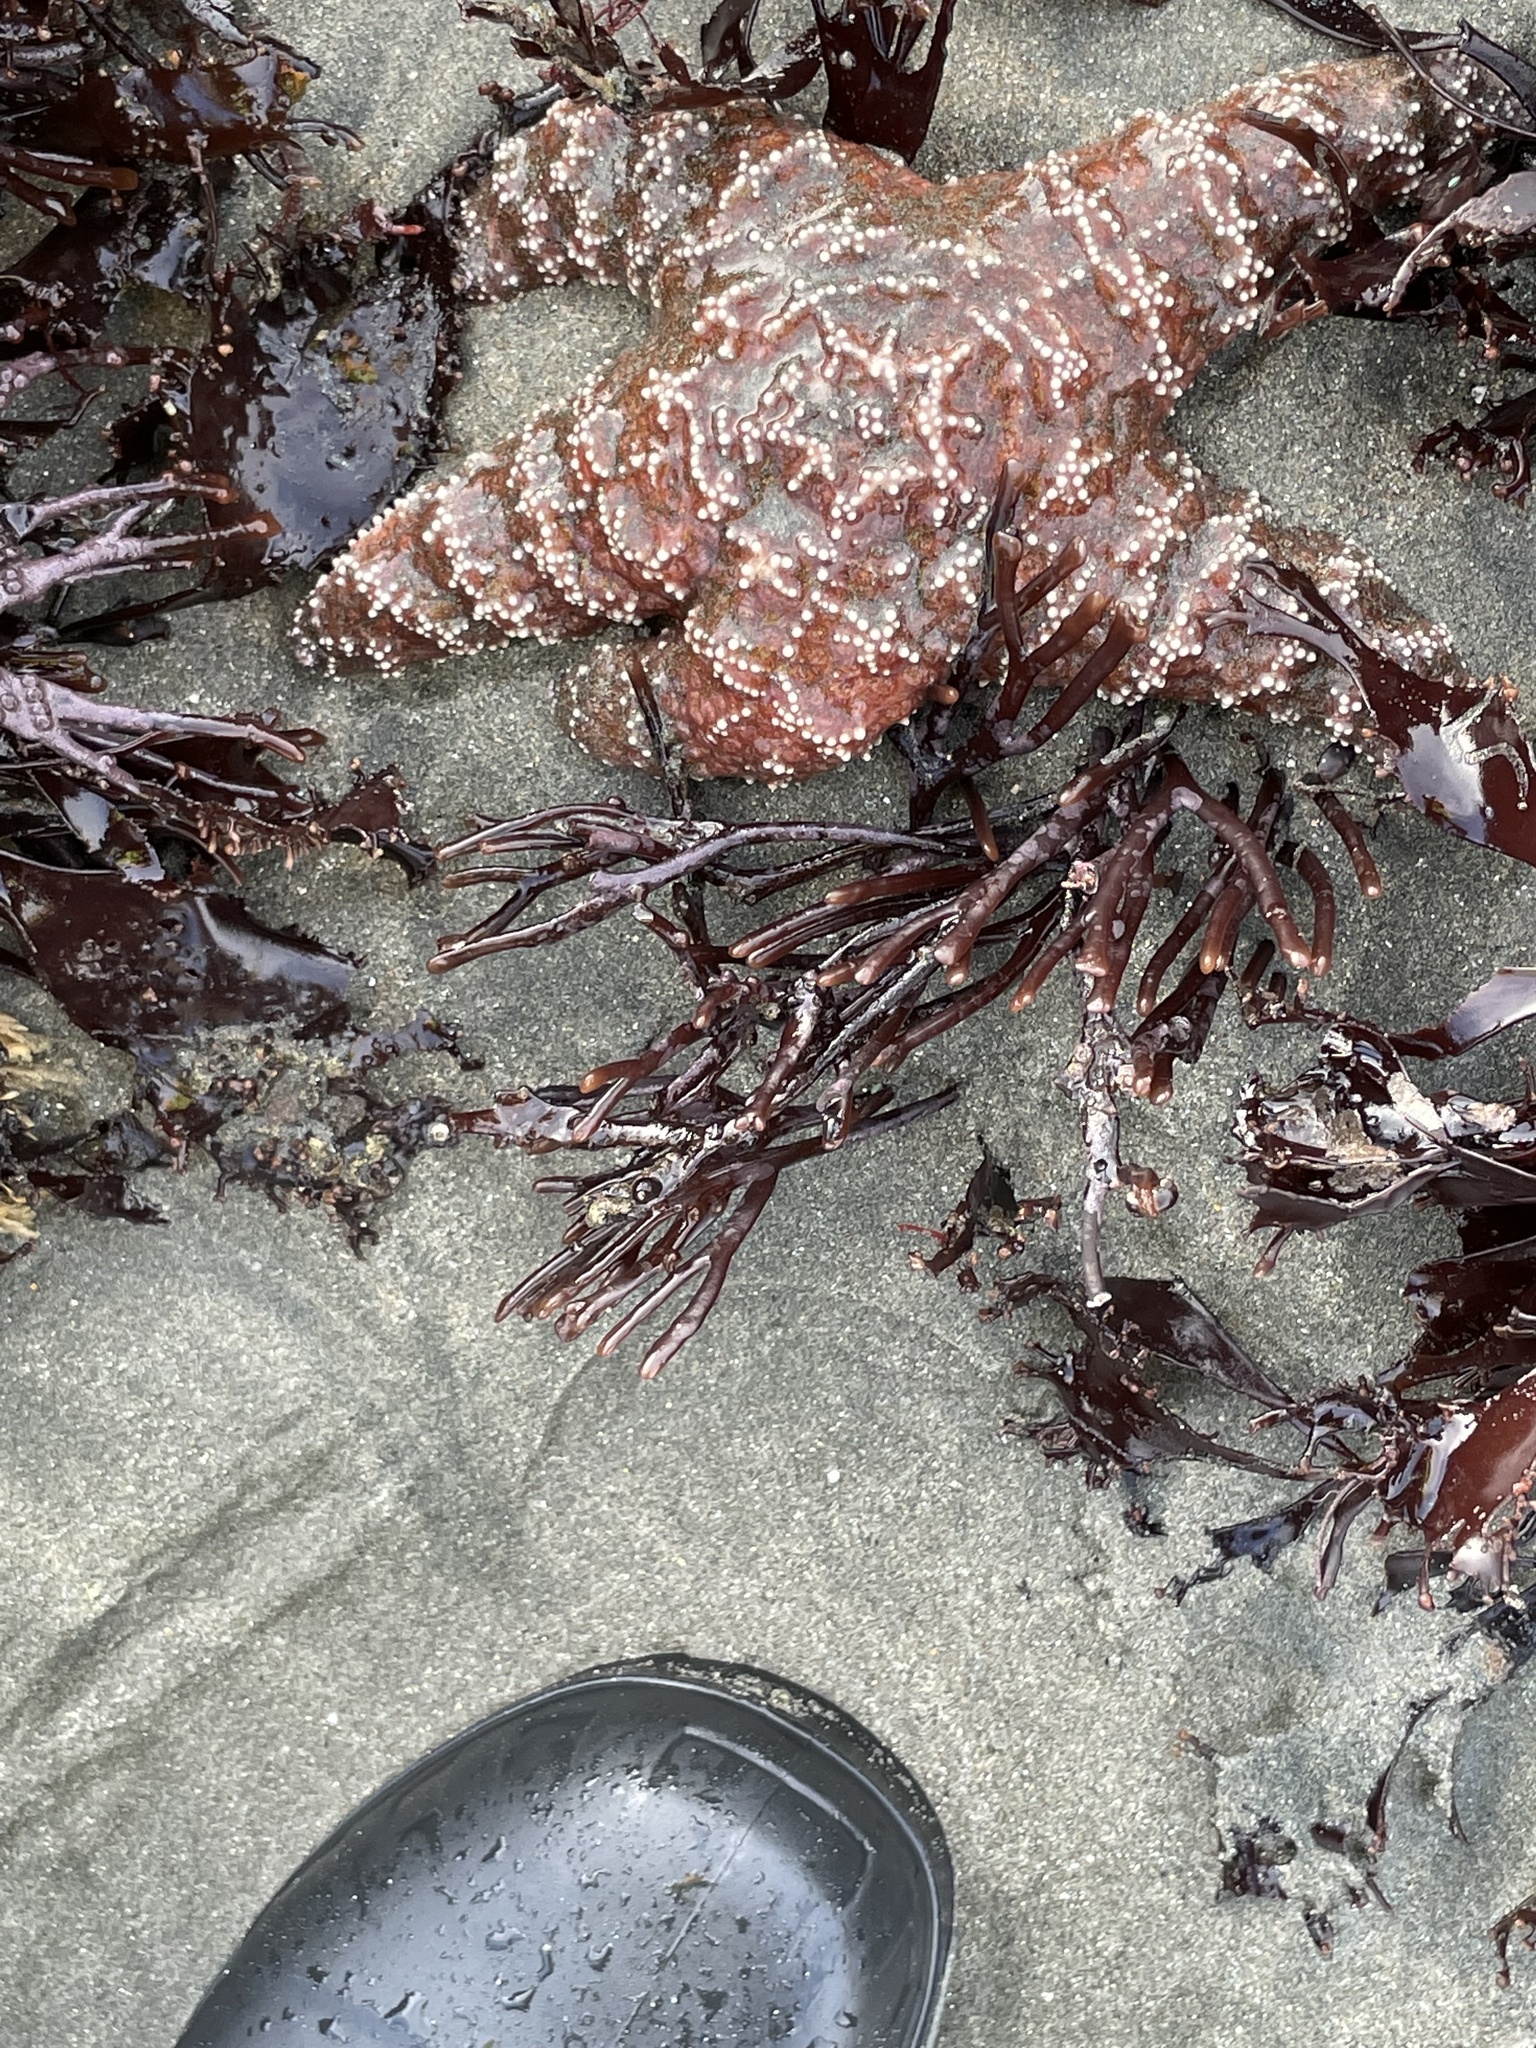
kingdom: Animalia
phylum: Echinodermata
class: Asteroidea
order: Forcipulatida
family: Asteriidae
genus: Pisaster
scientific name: Pisaster ochraceus
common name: Ochre stars
